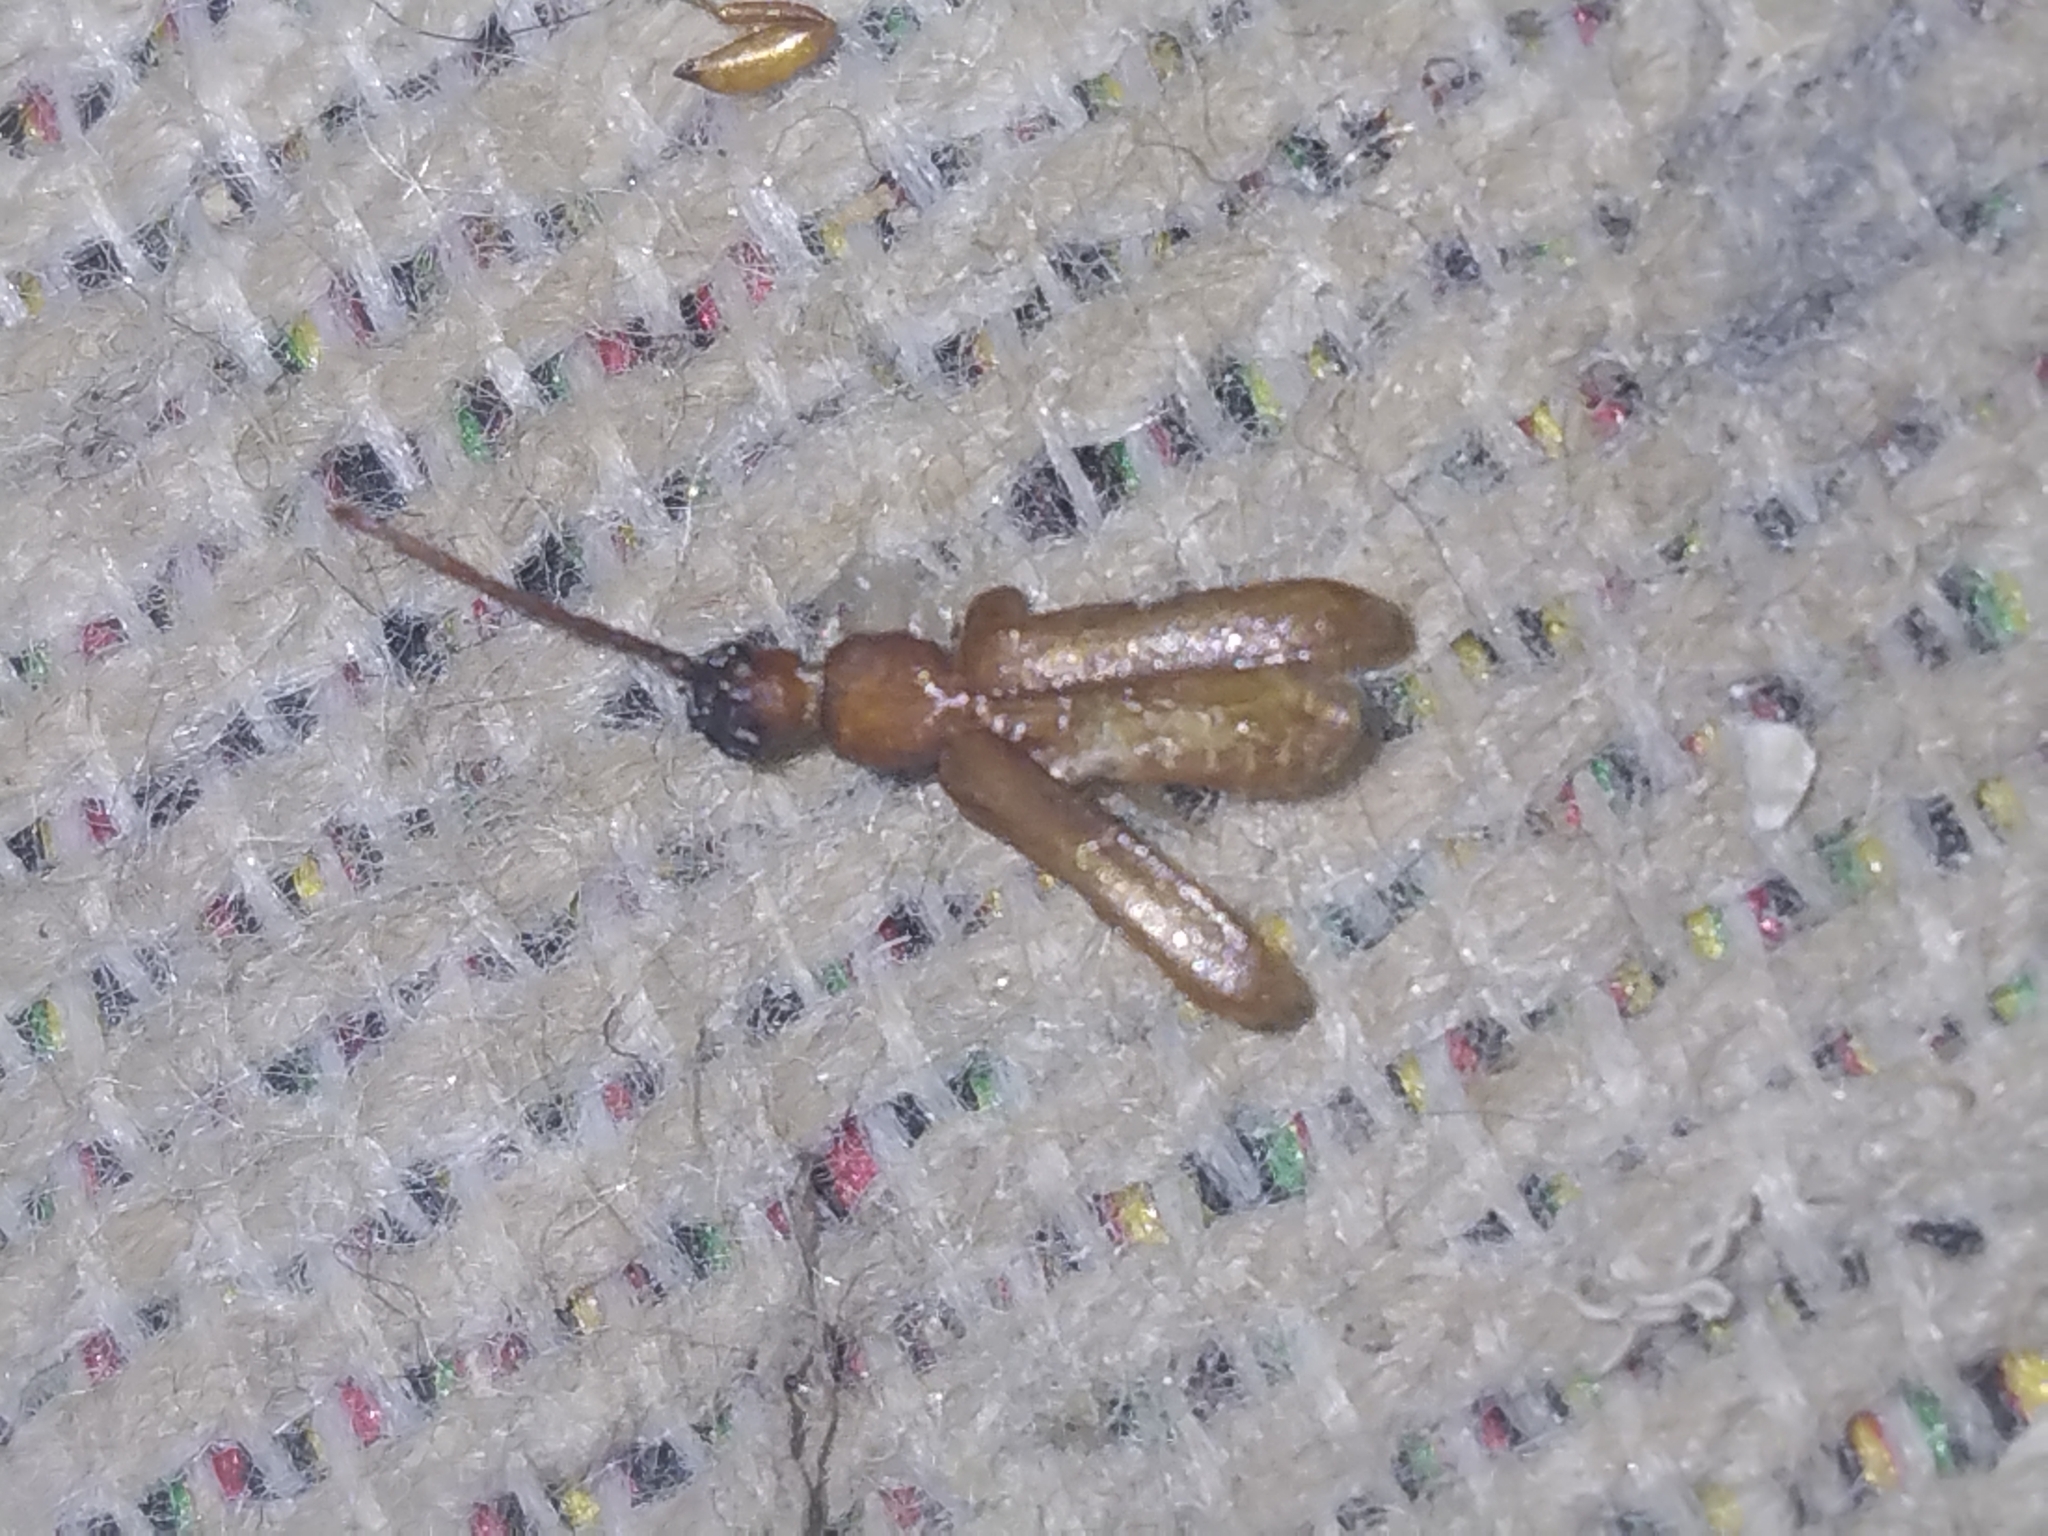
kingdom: Animalia
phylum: Arthropoda
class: Insecta
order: Coleoptera
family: Cerambycidae
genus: Smodicum
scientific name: Smodicum cucujiforme
